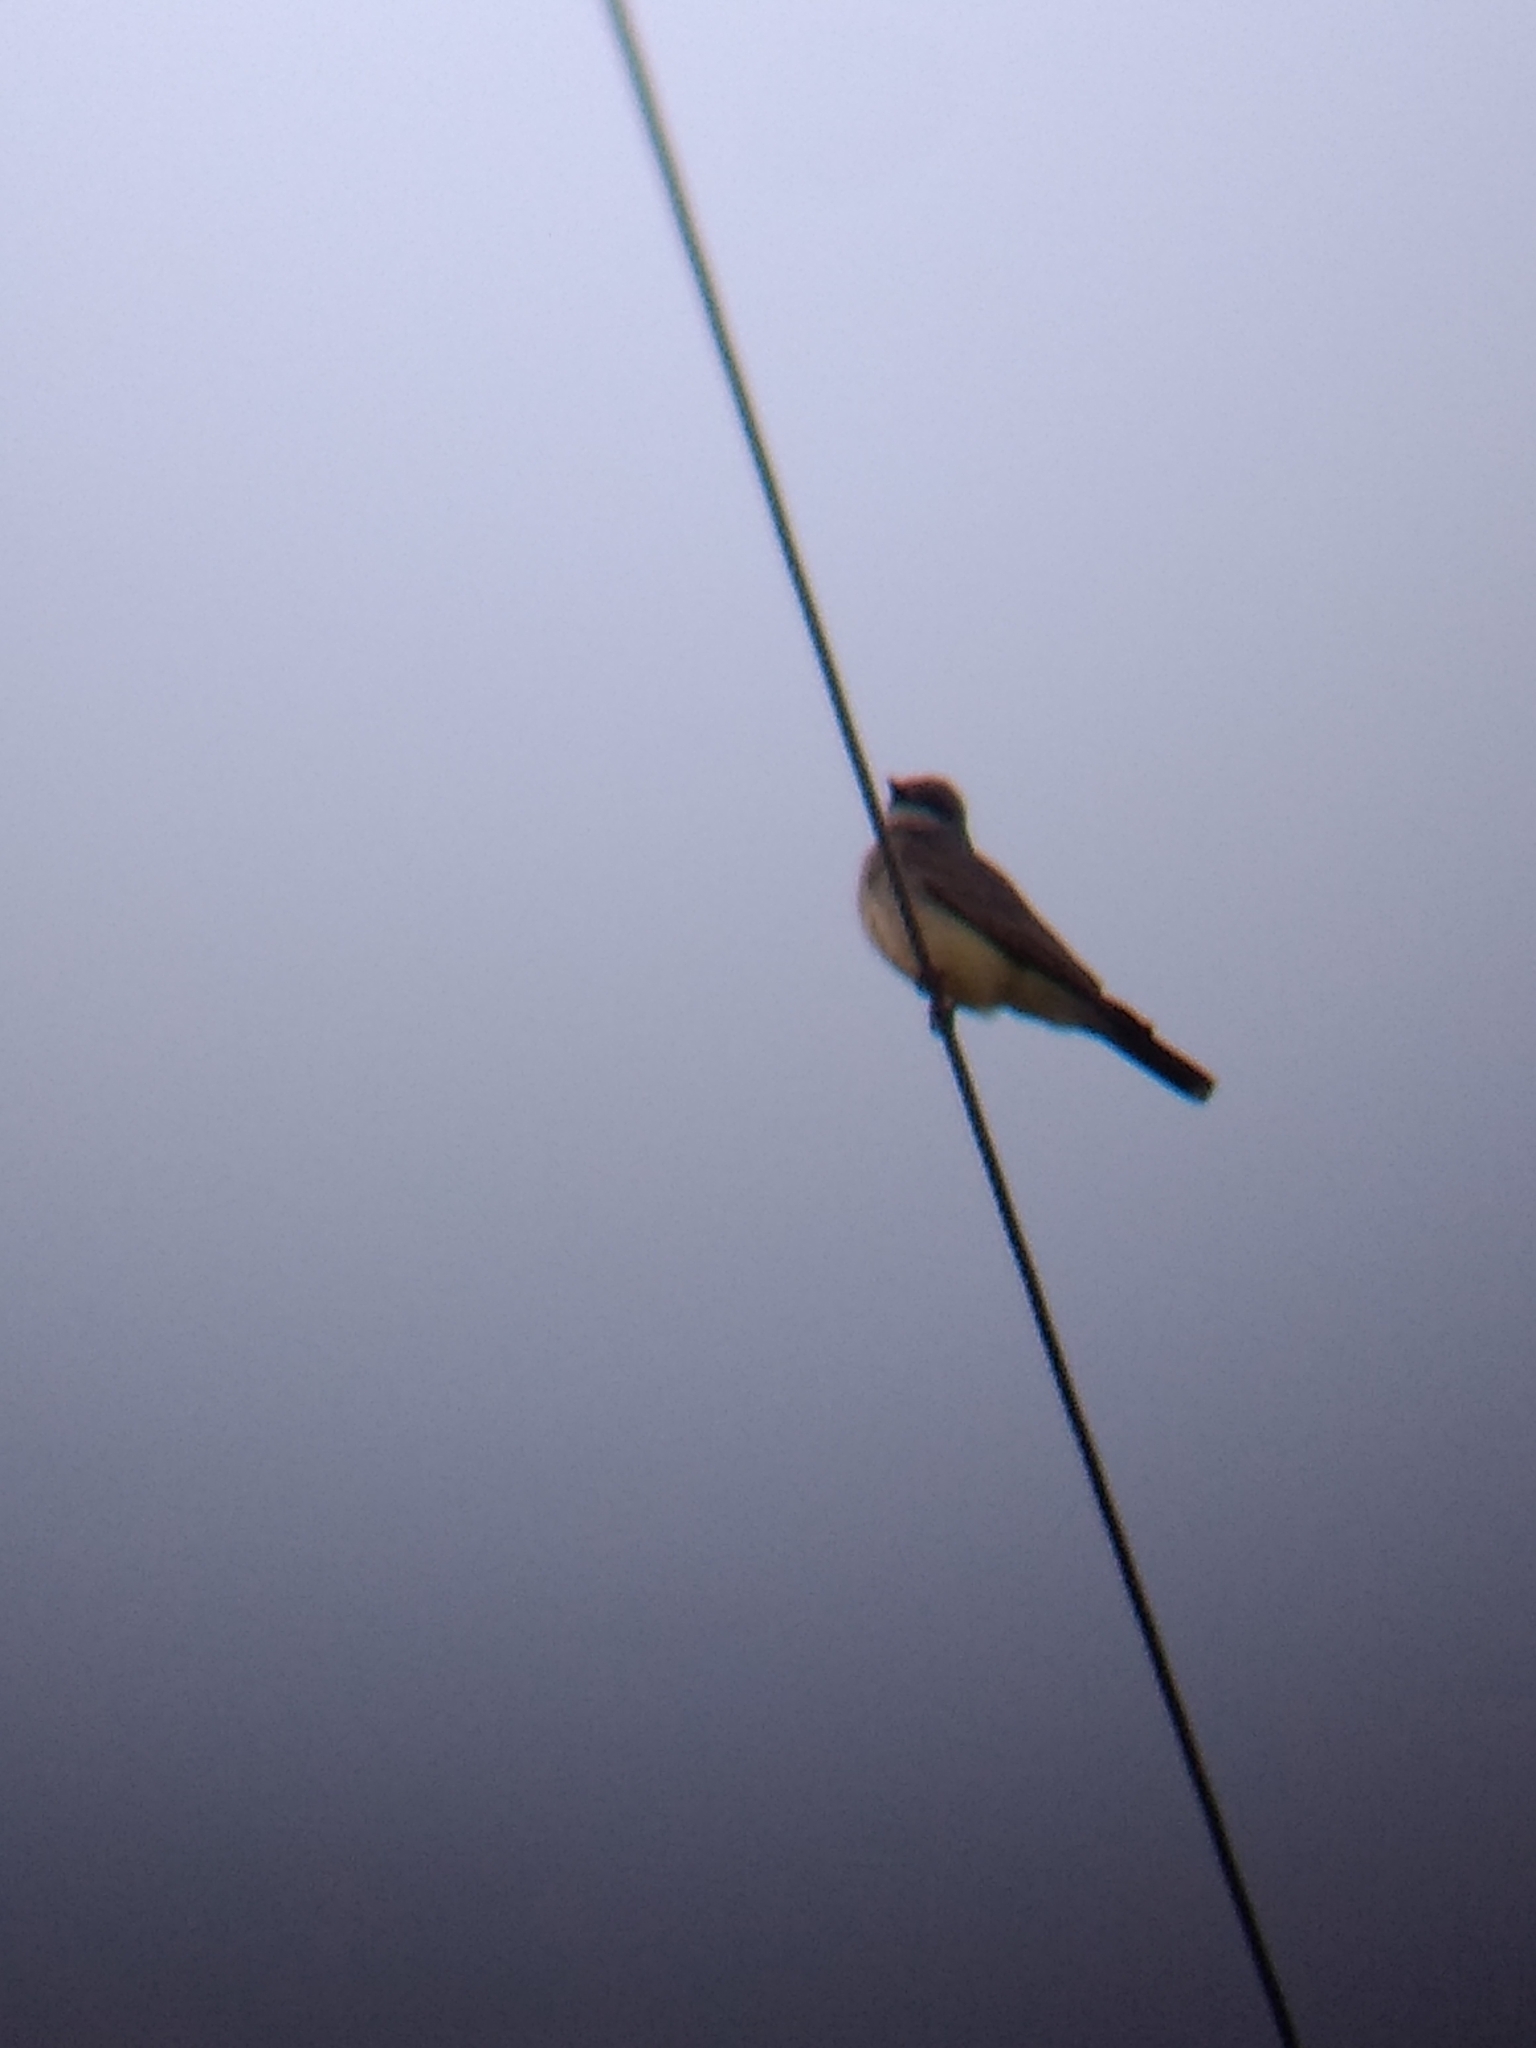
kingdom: Animalia
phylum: Chordata
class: Aves
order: Passeriformes
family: Tyrannidae
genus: Tyrannus
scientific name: Tyrannus vociferans
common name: Cassin's kingbird
